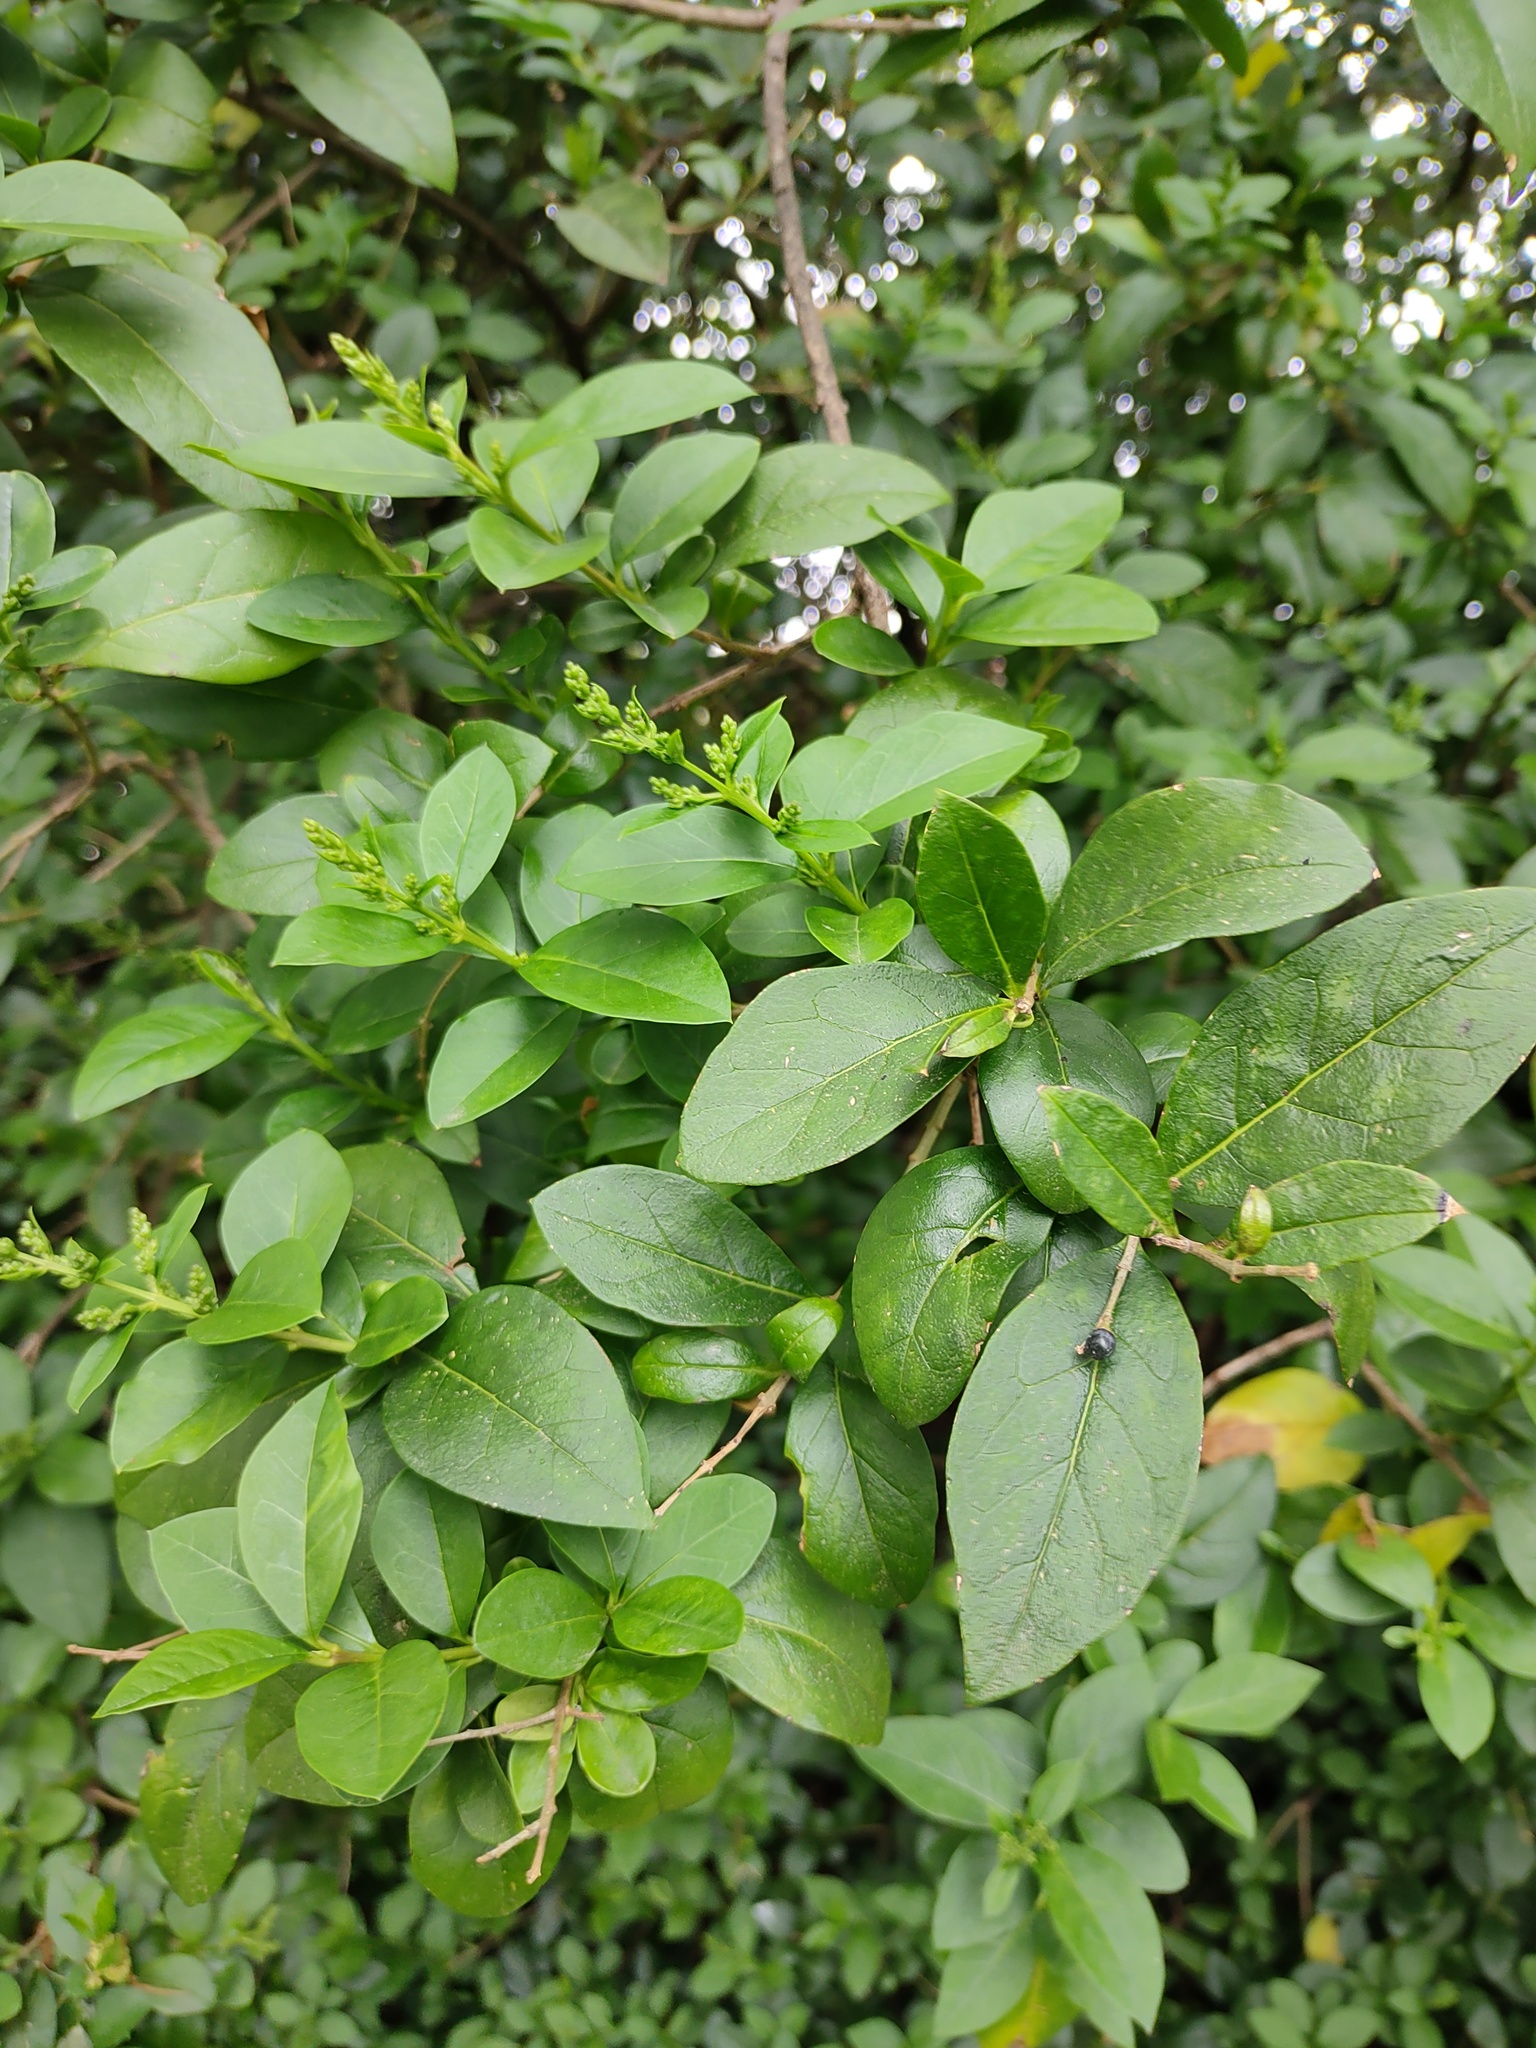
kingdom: Plantae
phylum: Tracheophyta
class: Magnoliopsida
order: Lamiales
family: Oleaceae
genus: Ligustrum
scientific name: Ligustrum ovalifolium
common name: California privet
